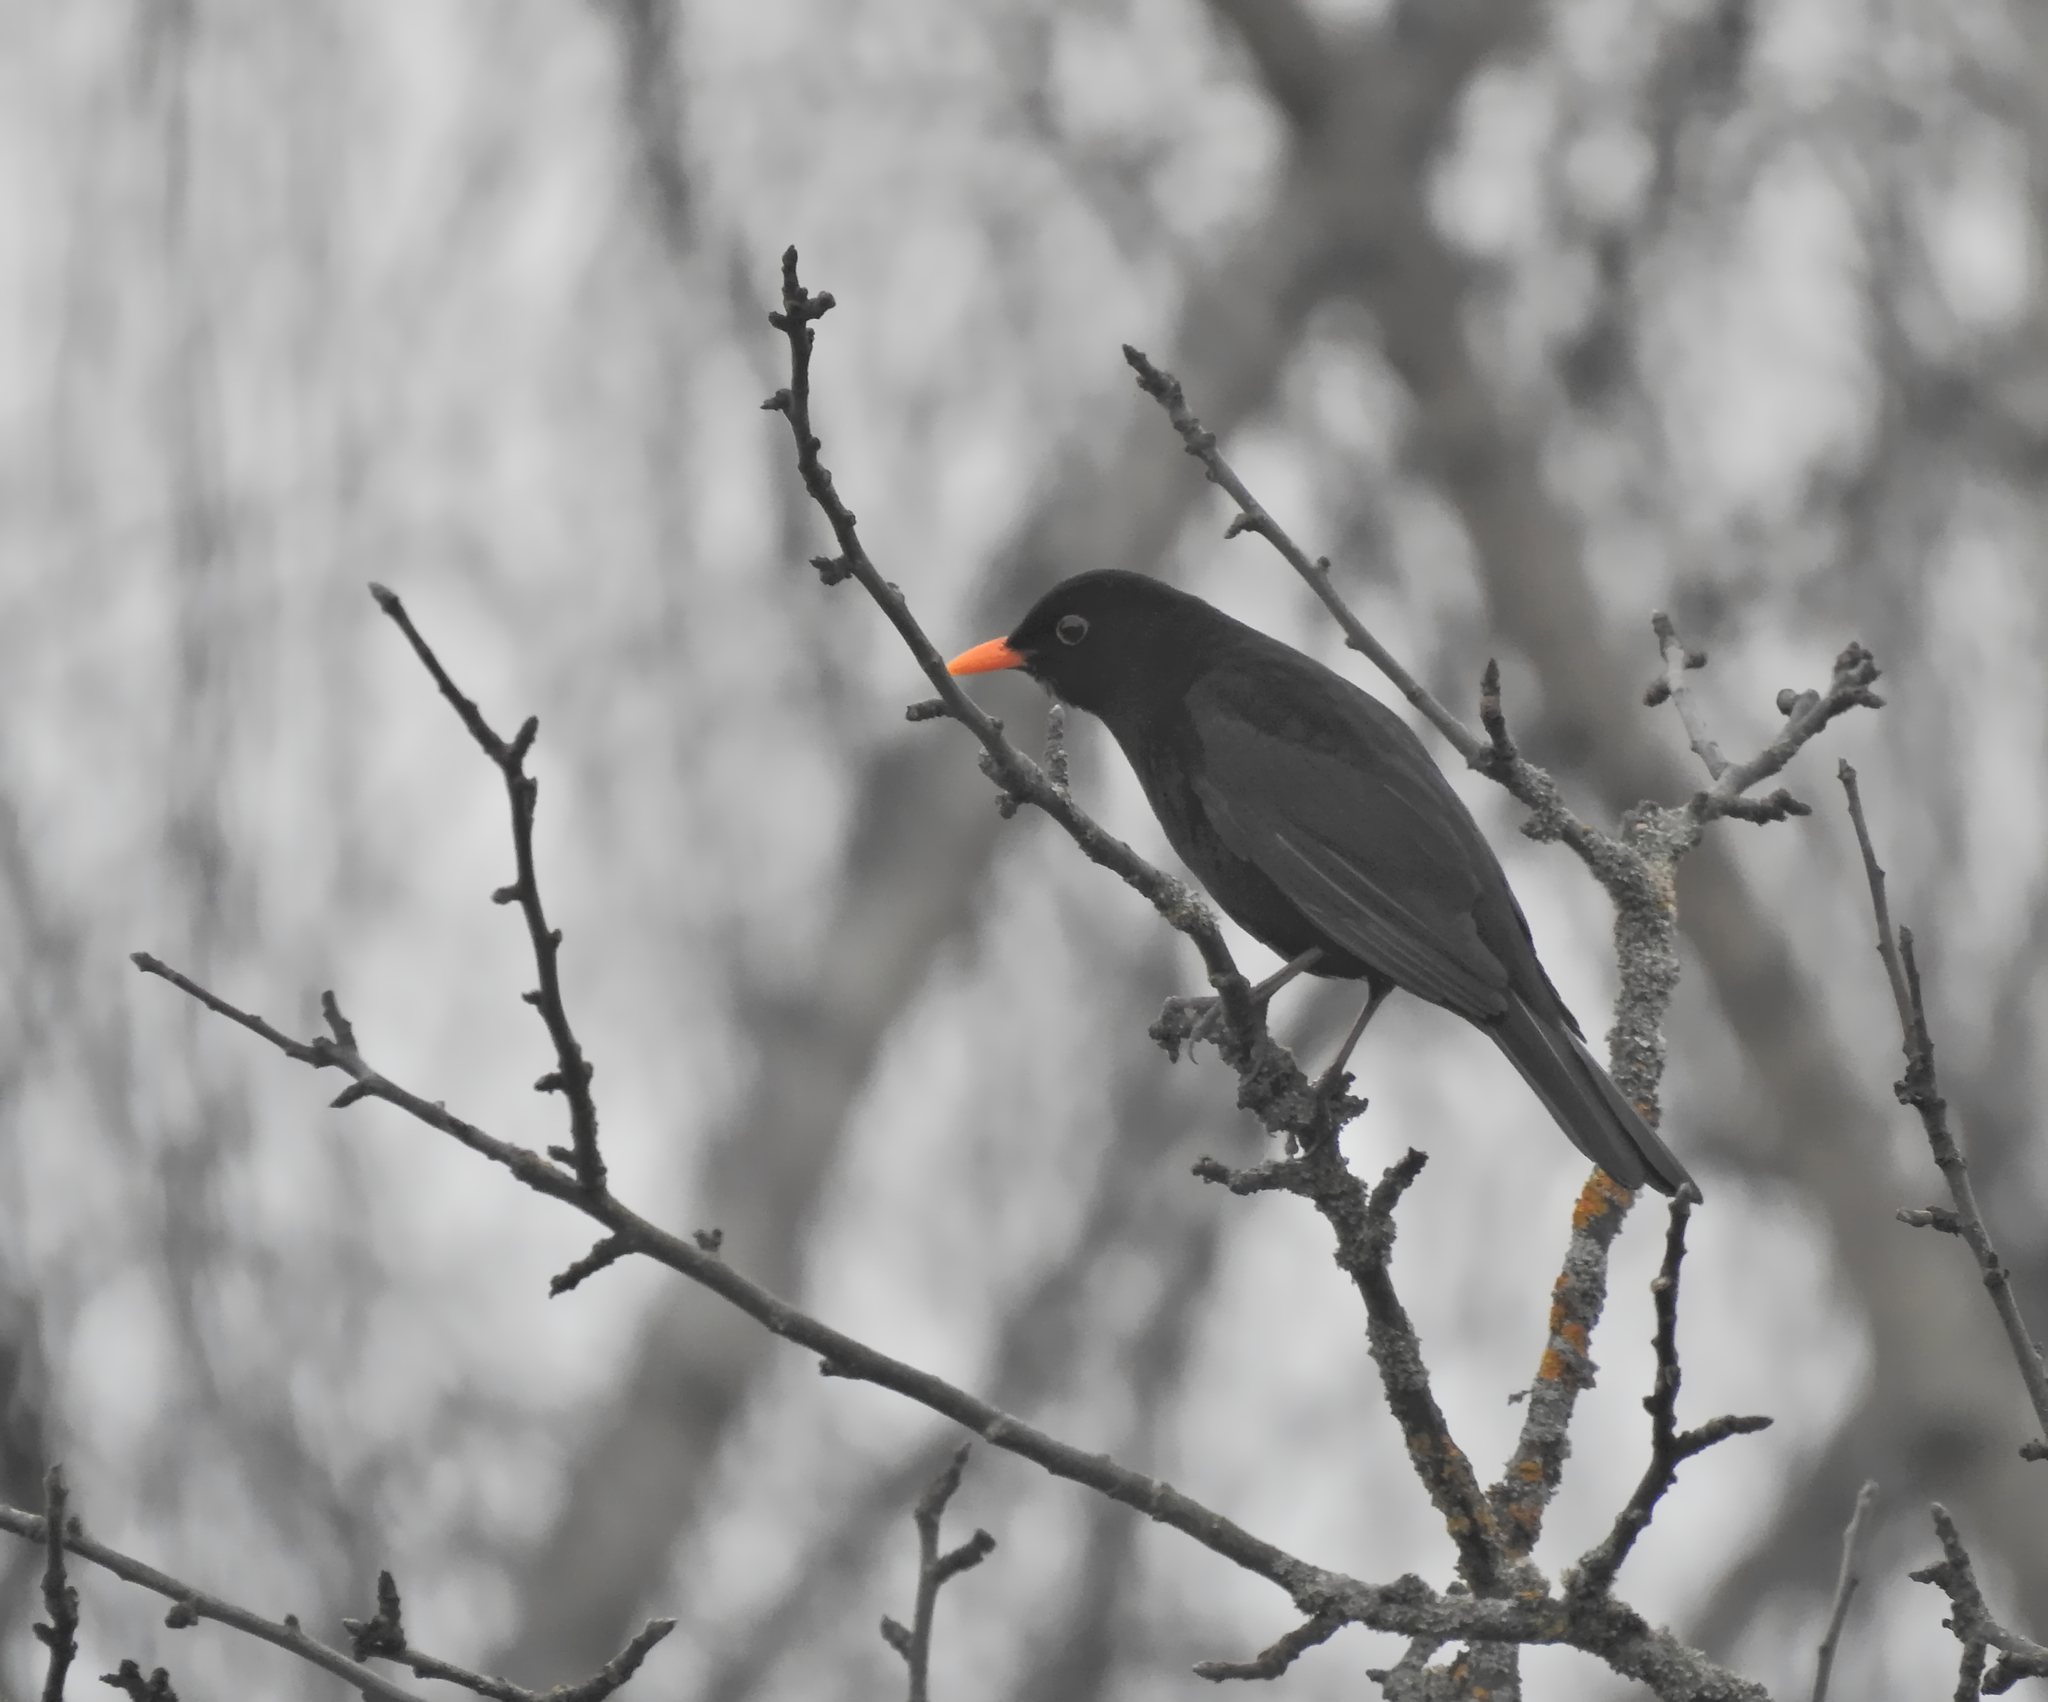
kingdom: Animalia
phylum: Chordata
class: Aves
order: Passeriformes
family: Turdidae
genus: Turdus
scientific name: Turdus merula
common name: Common blackbird
